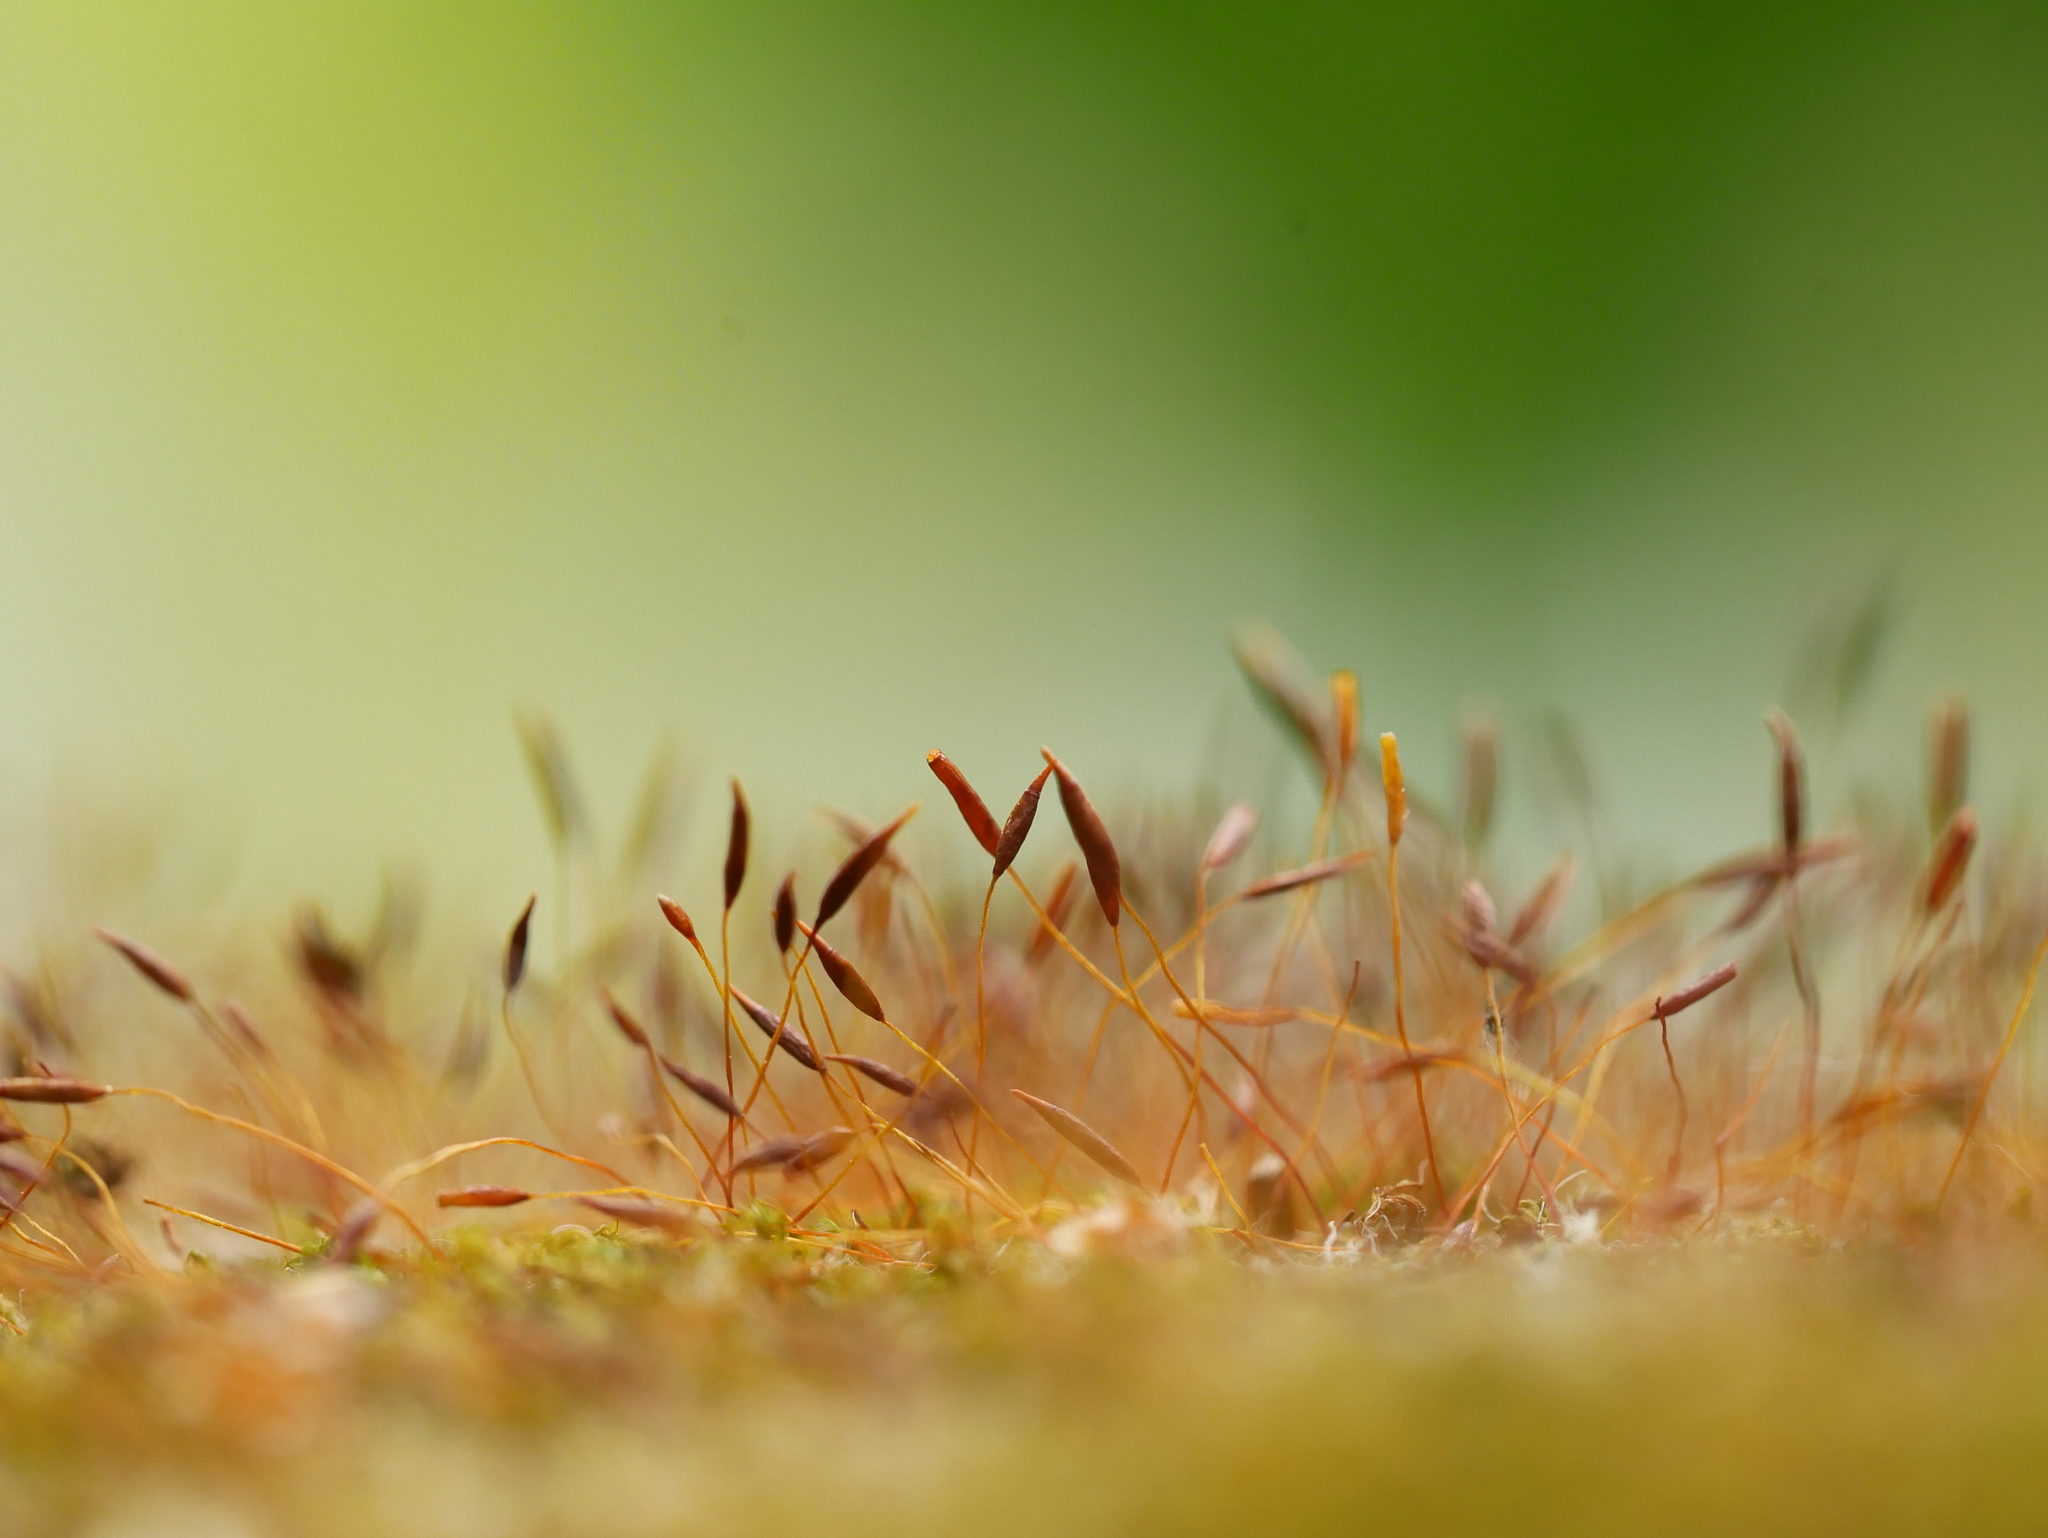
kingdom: Plantae
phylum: Bryophyta
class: Bryopsida
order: Pottiales
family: Pottiaceae
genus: Tortula
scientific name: Tortula muralis
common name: Wall screw-moss
